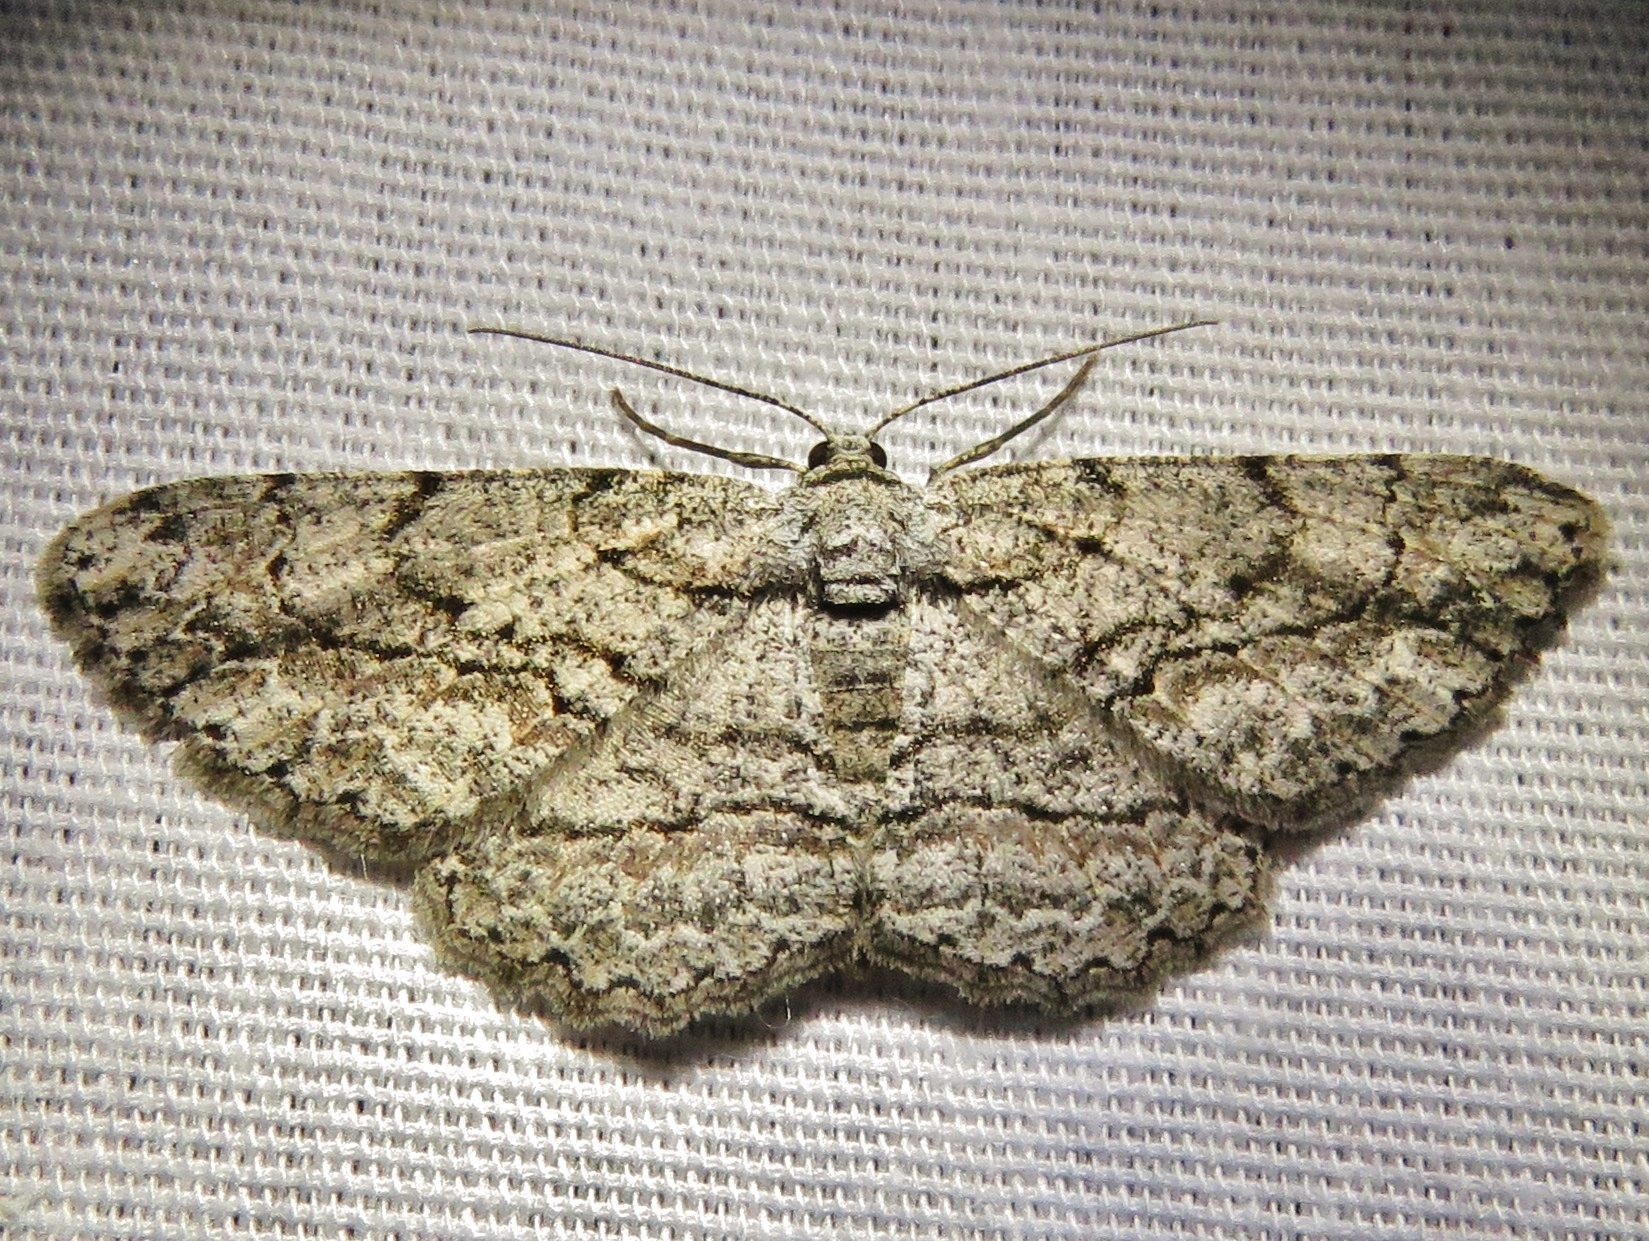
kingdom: Animalia
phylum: Arthropoda
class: Insecta
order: Lepidoptera
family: Geometridae
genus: Anavitrinella
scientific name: Anavitrinella pampinaria
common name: Common gray
